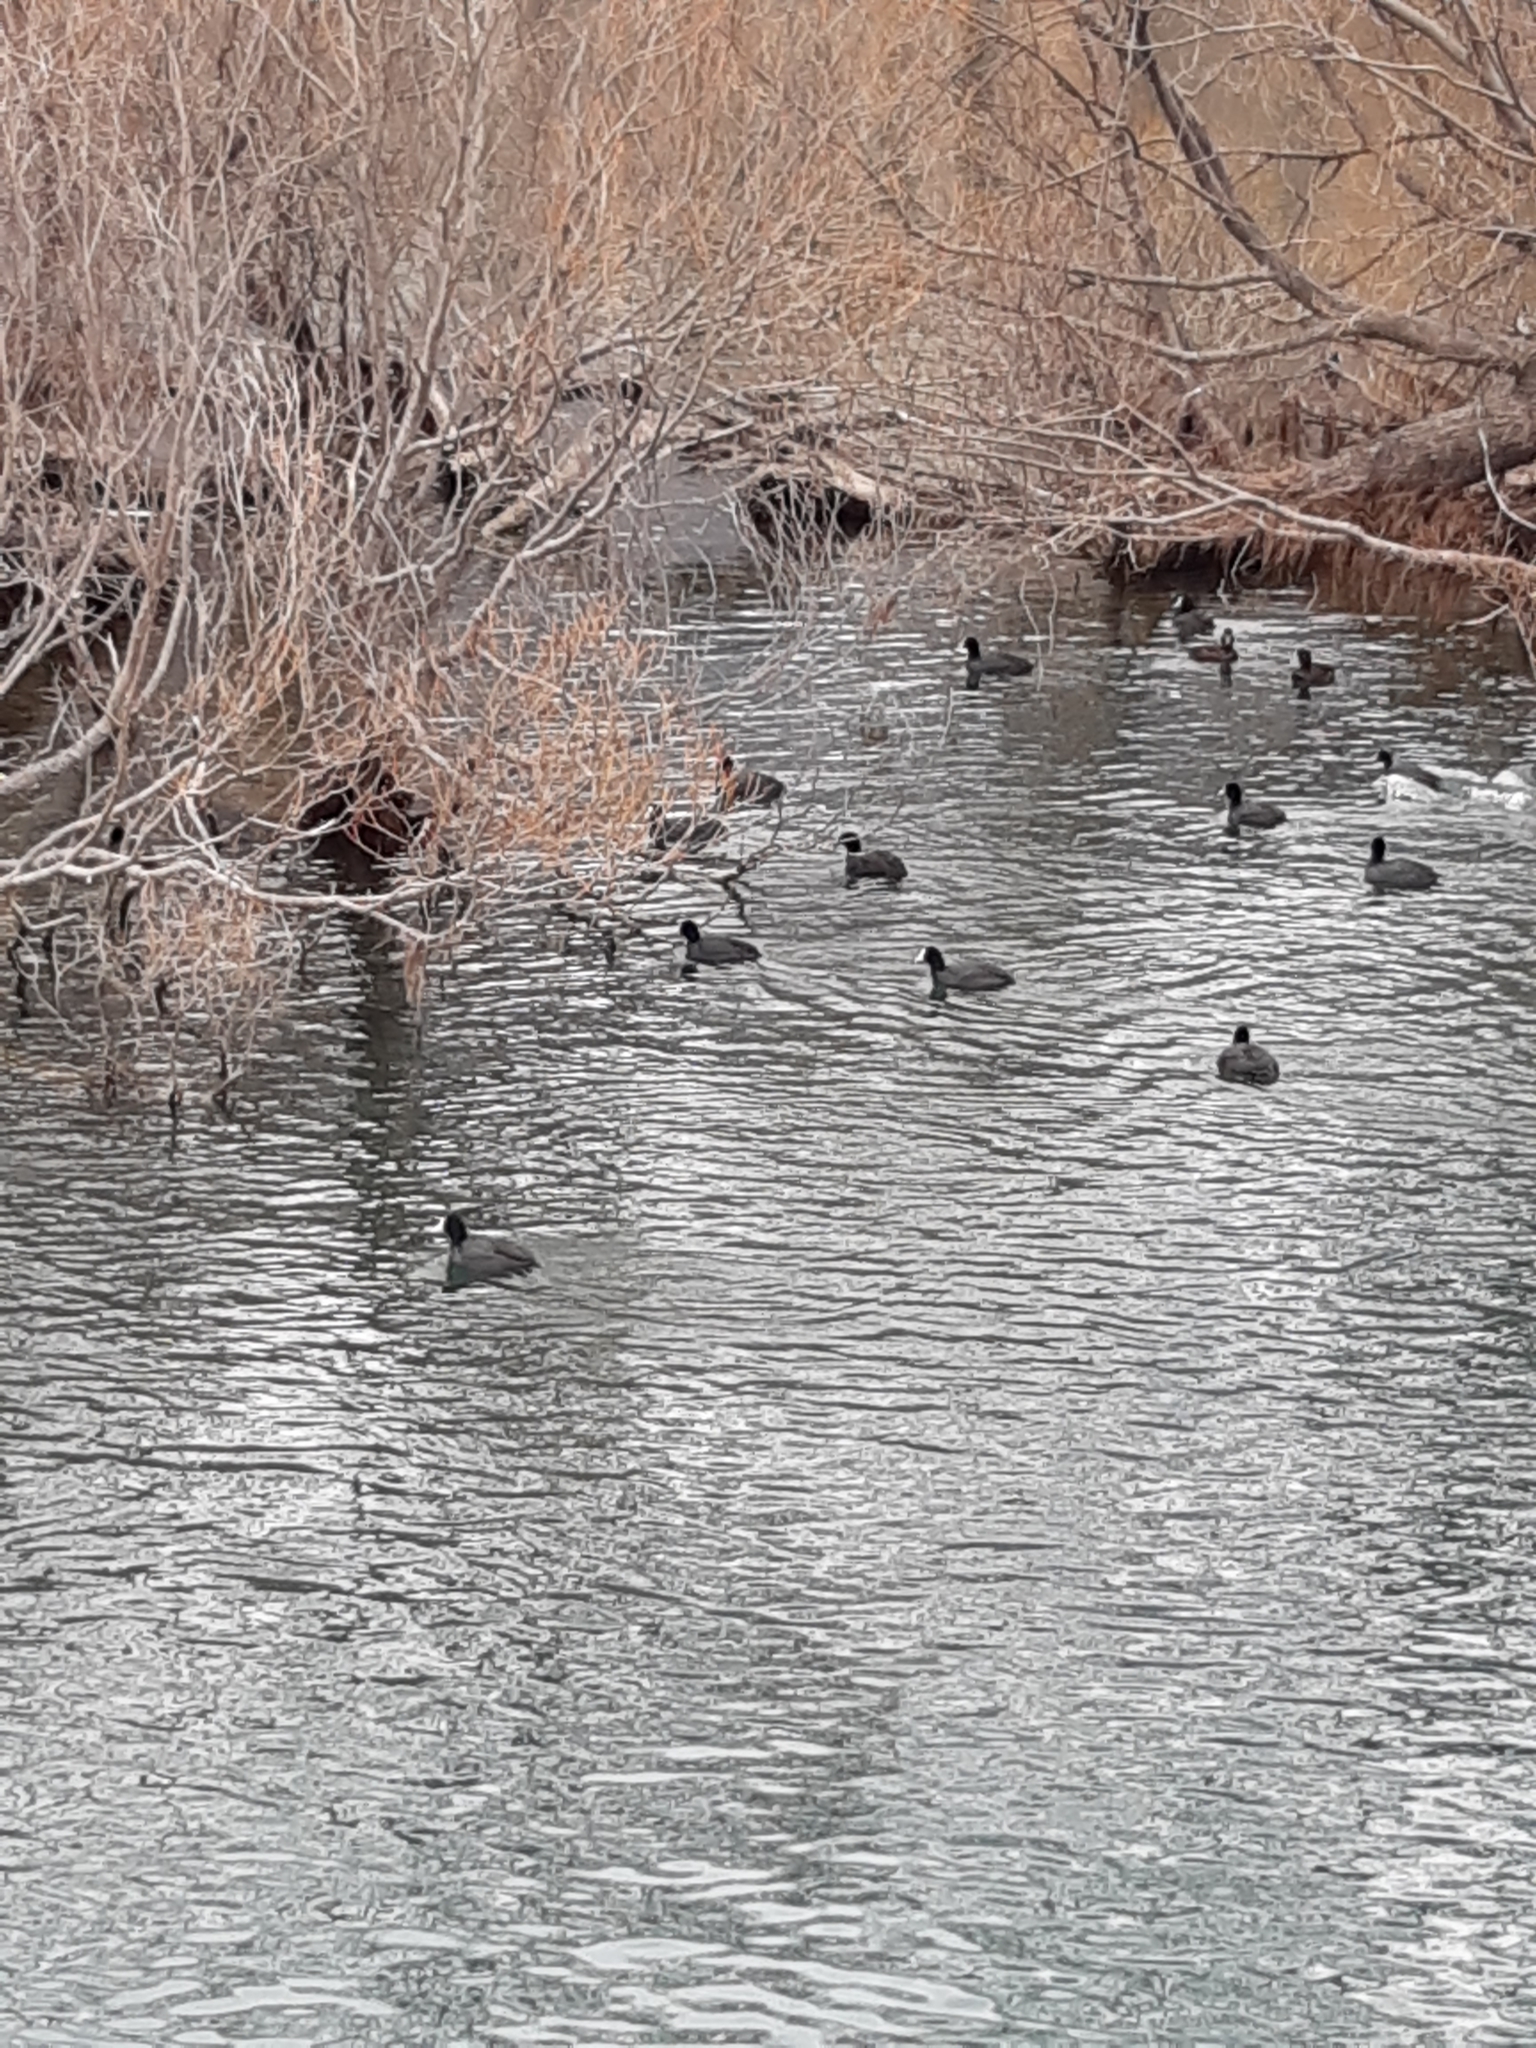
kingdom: Animalia
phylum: Chordata
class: Aves
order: Gruiformes
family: Rallidae
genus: Fulica
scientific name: Fulica atra
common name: Eurasian coot
